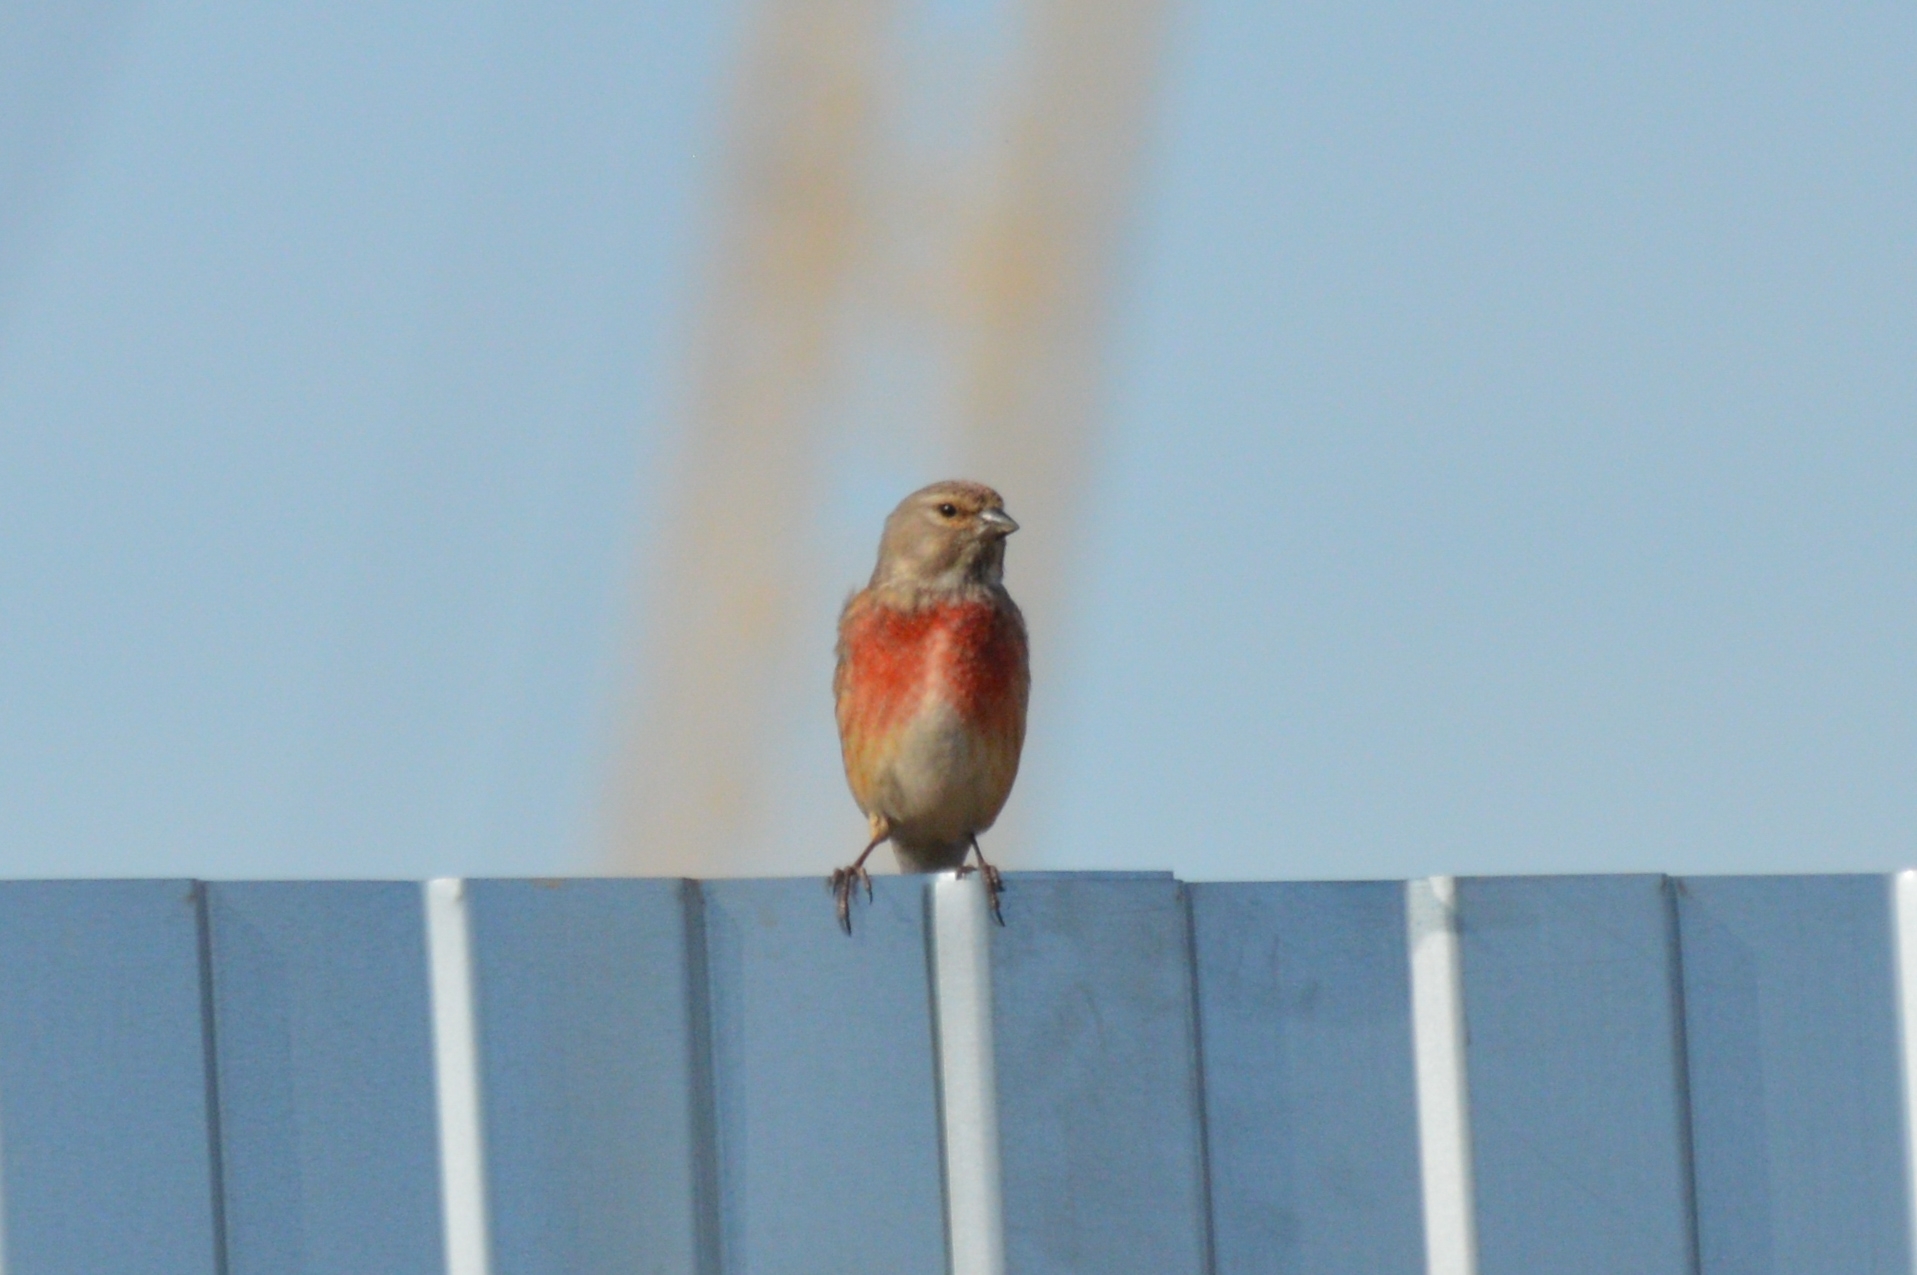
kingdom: Animalia
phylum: Chordata
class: Aves
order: Passeriformes
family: Fringillidae
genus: Linaria
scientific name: Linaria cannabina
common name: Common linnet
